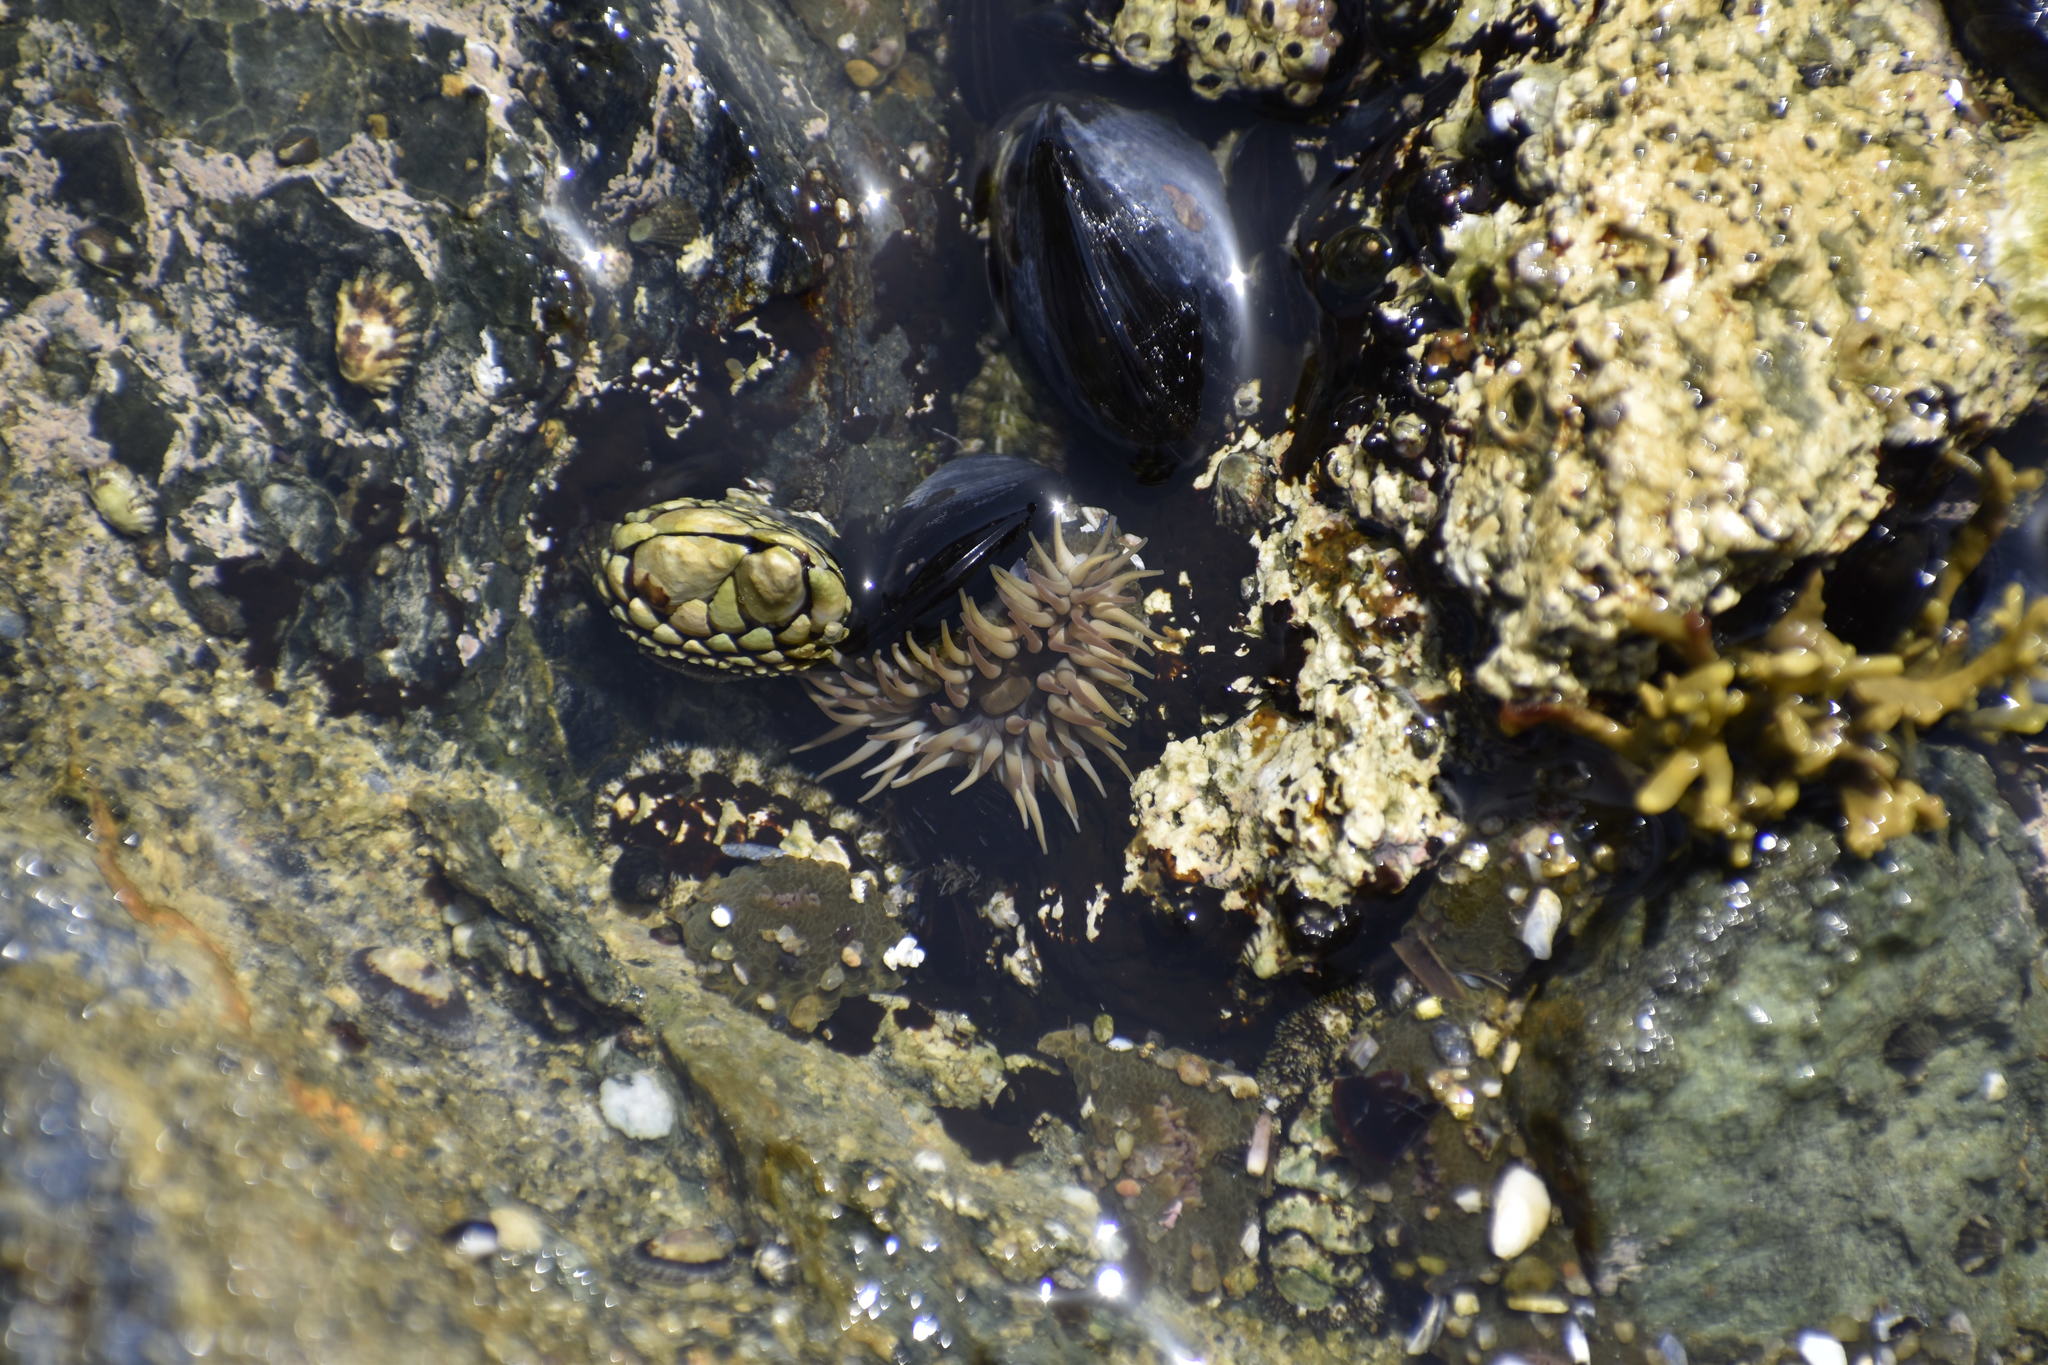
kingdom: Animalia
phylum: Mollusca
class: Polyplacophora
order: Chitonida
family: Tonicellidae
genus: Nuttallina
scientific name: Nuttallina californica
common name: California nuttall chiton
